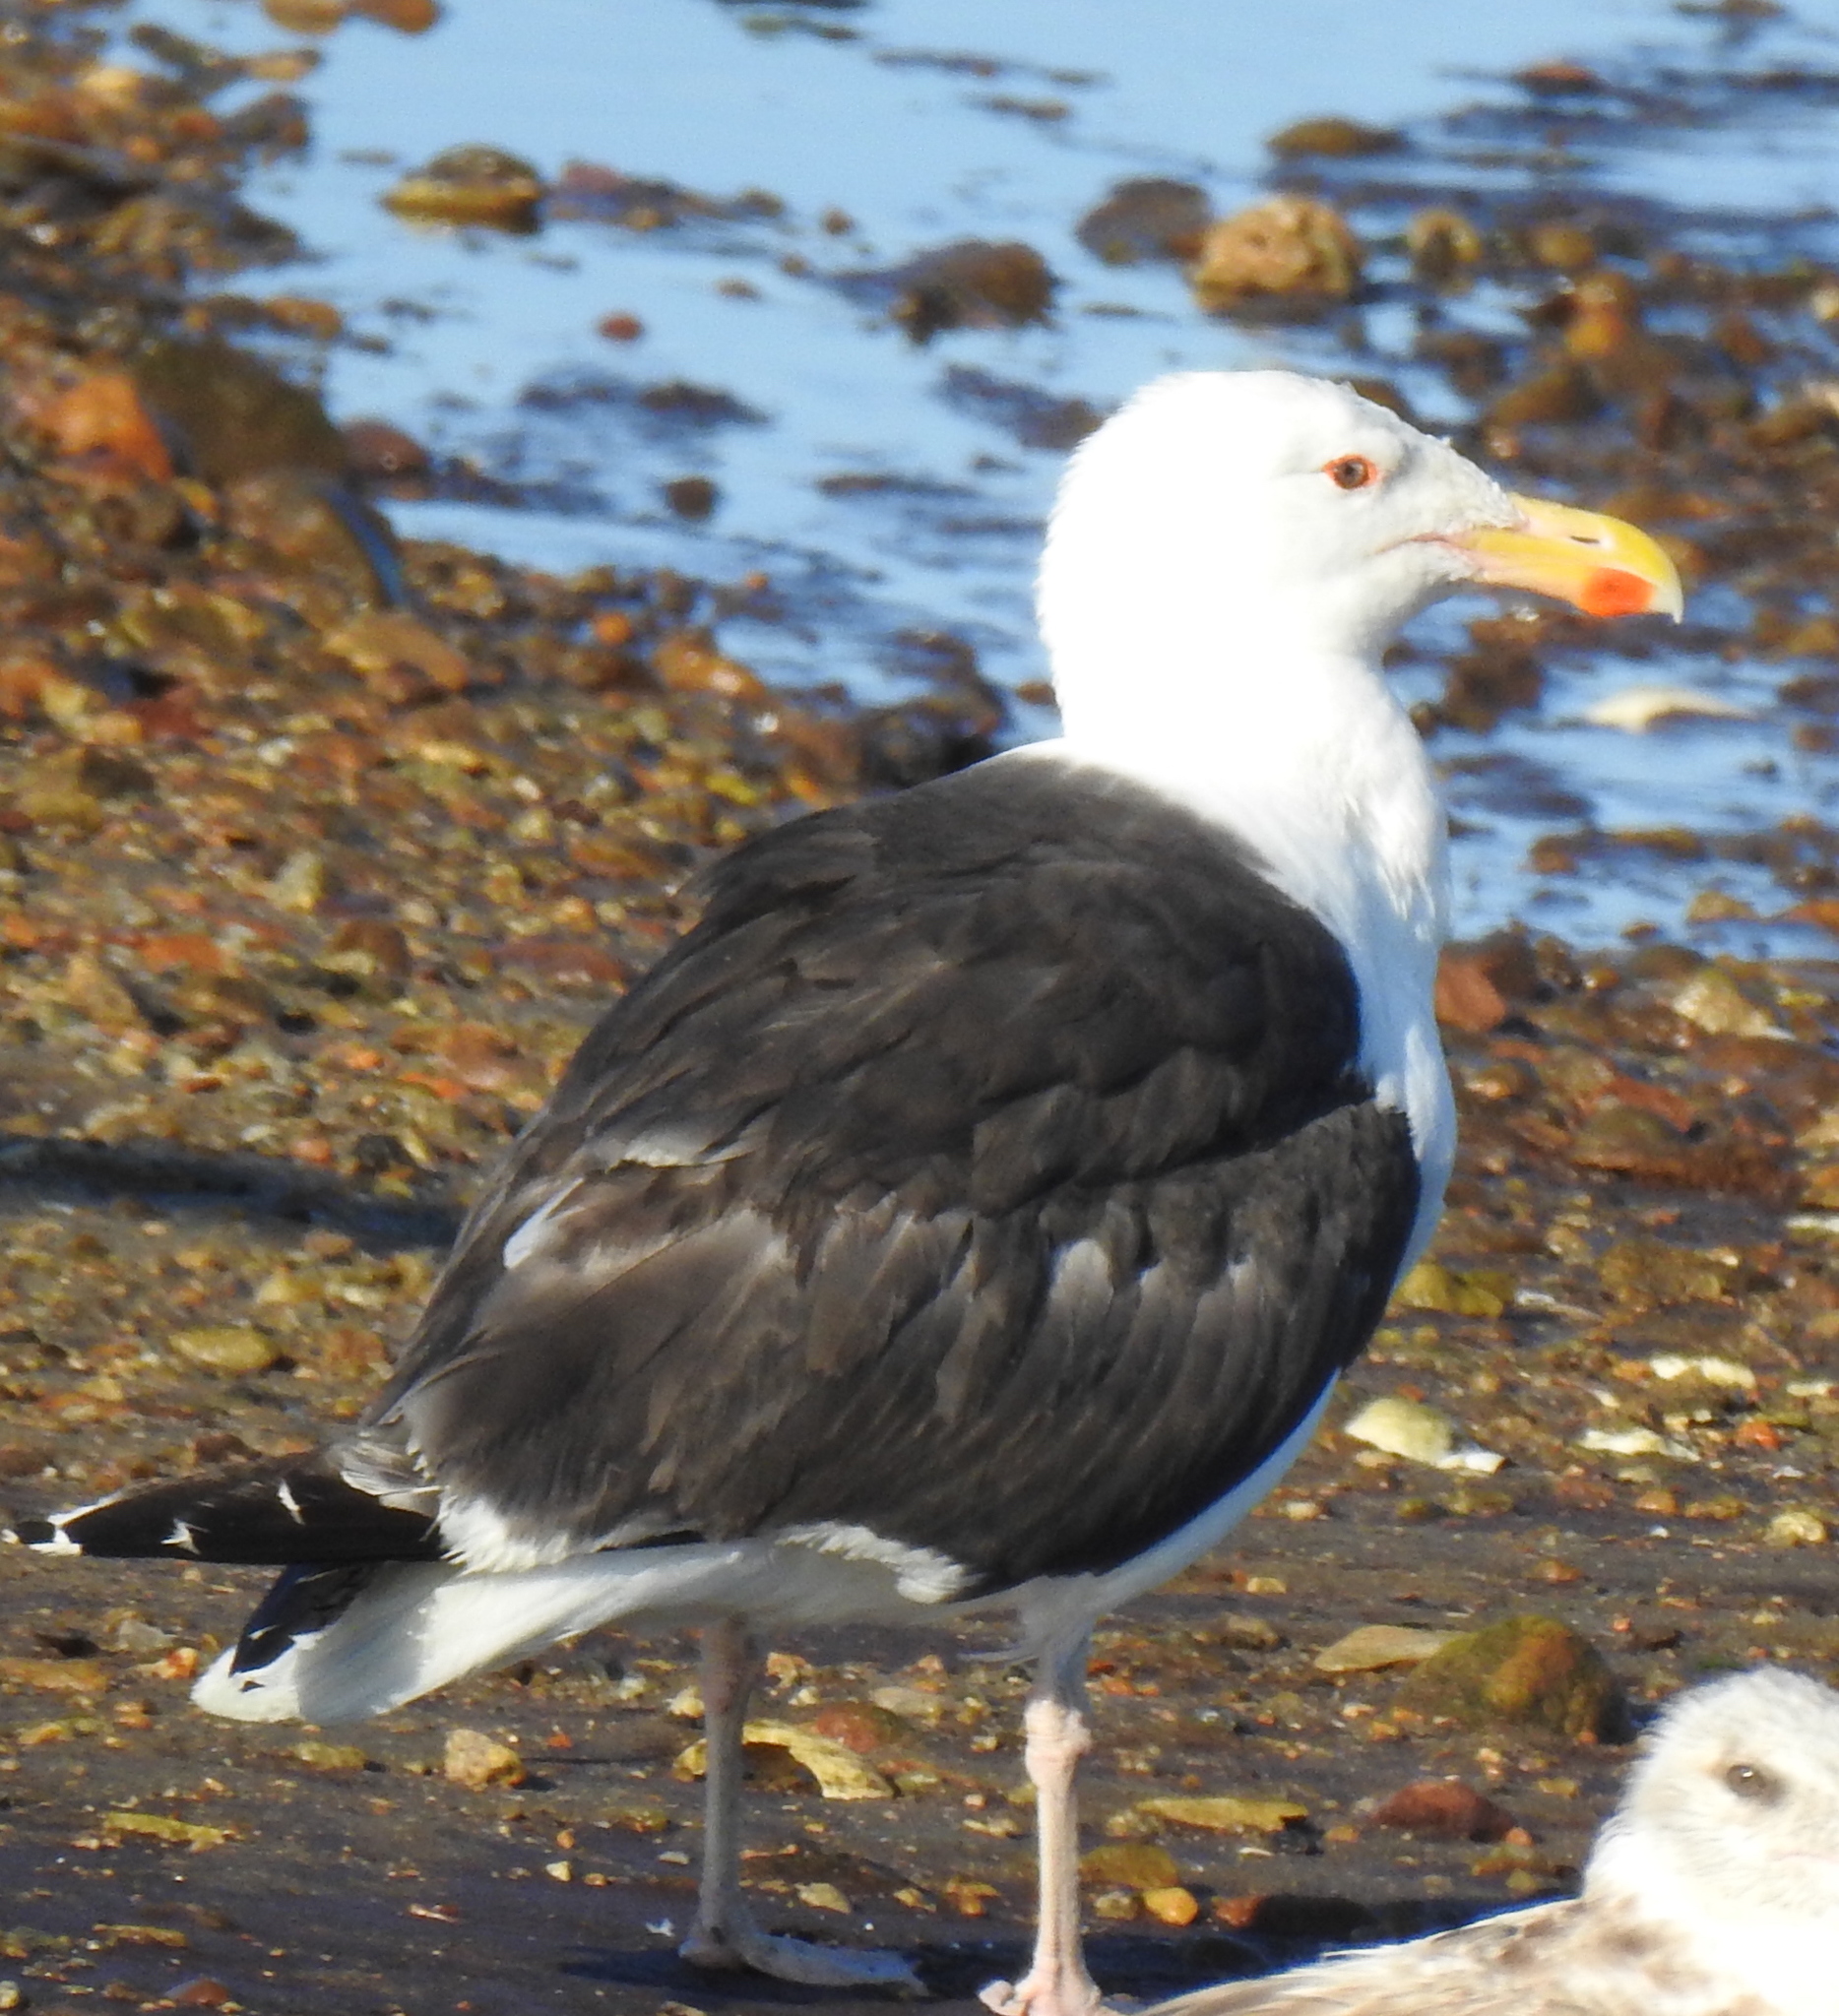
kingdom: Animalia
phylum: Chordata
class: Aves
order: Charadriiformes
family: Laridae
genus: Larus
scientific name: Larus marinus
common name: Great black-backed gull
